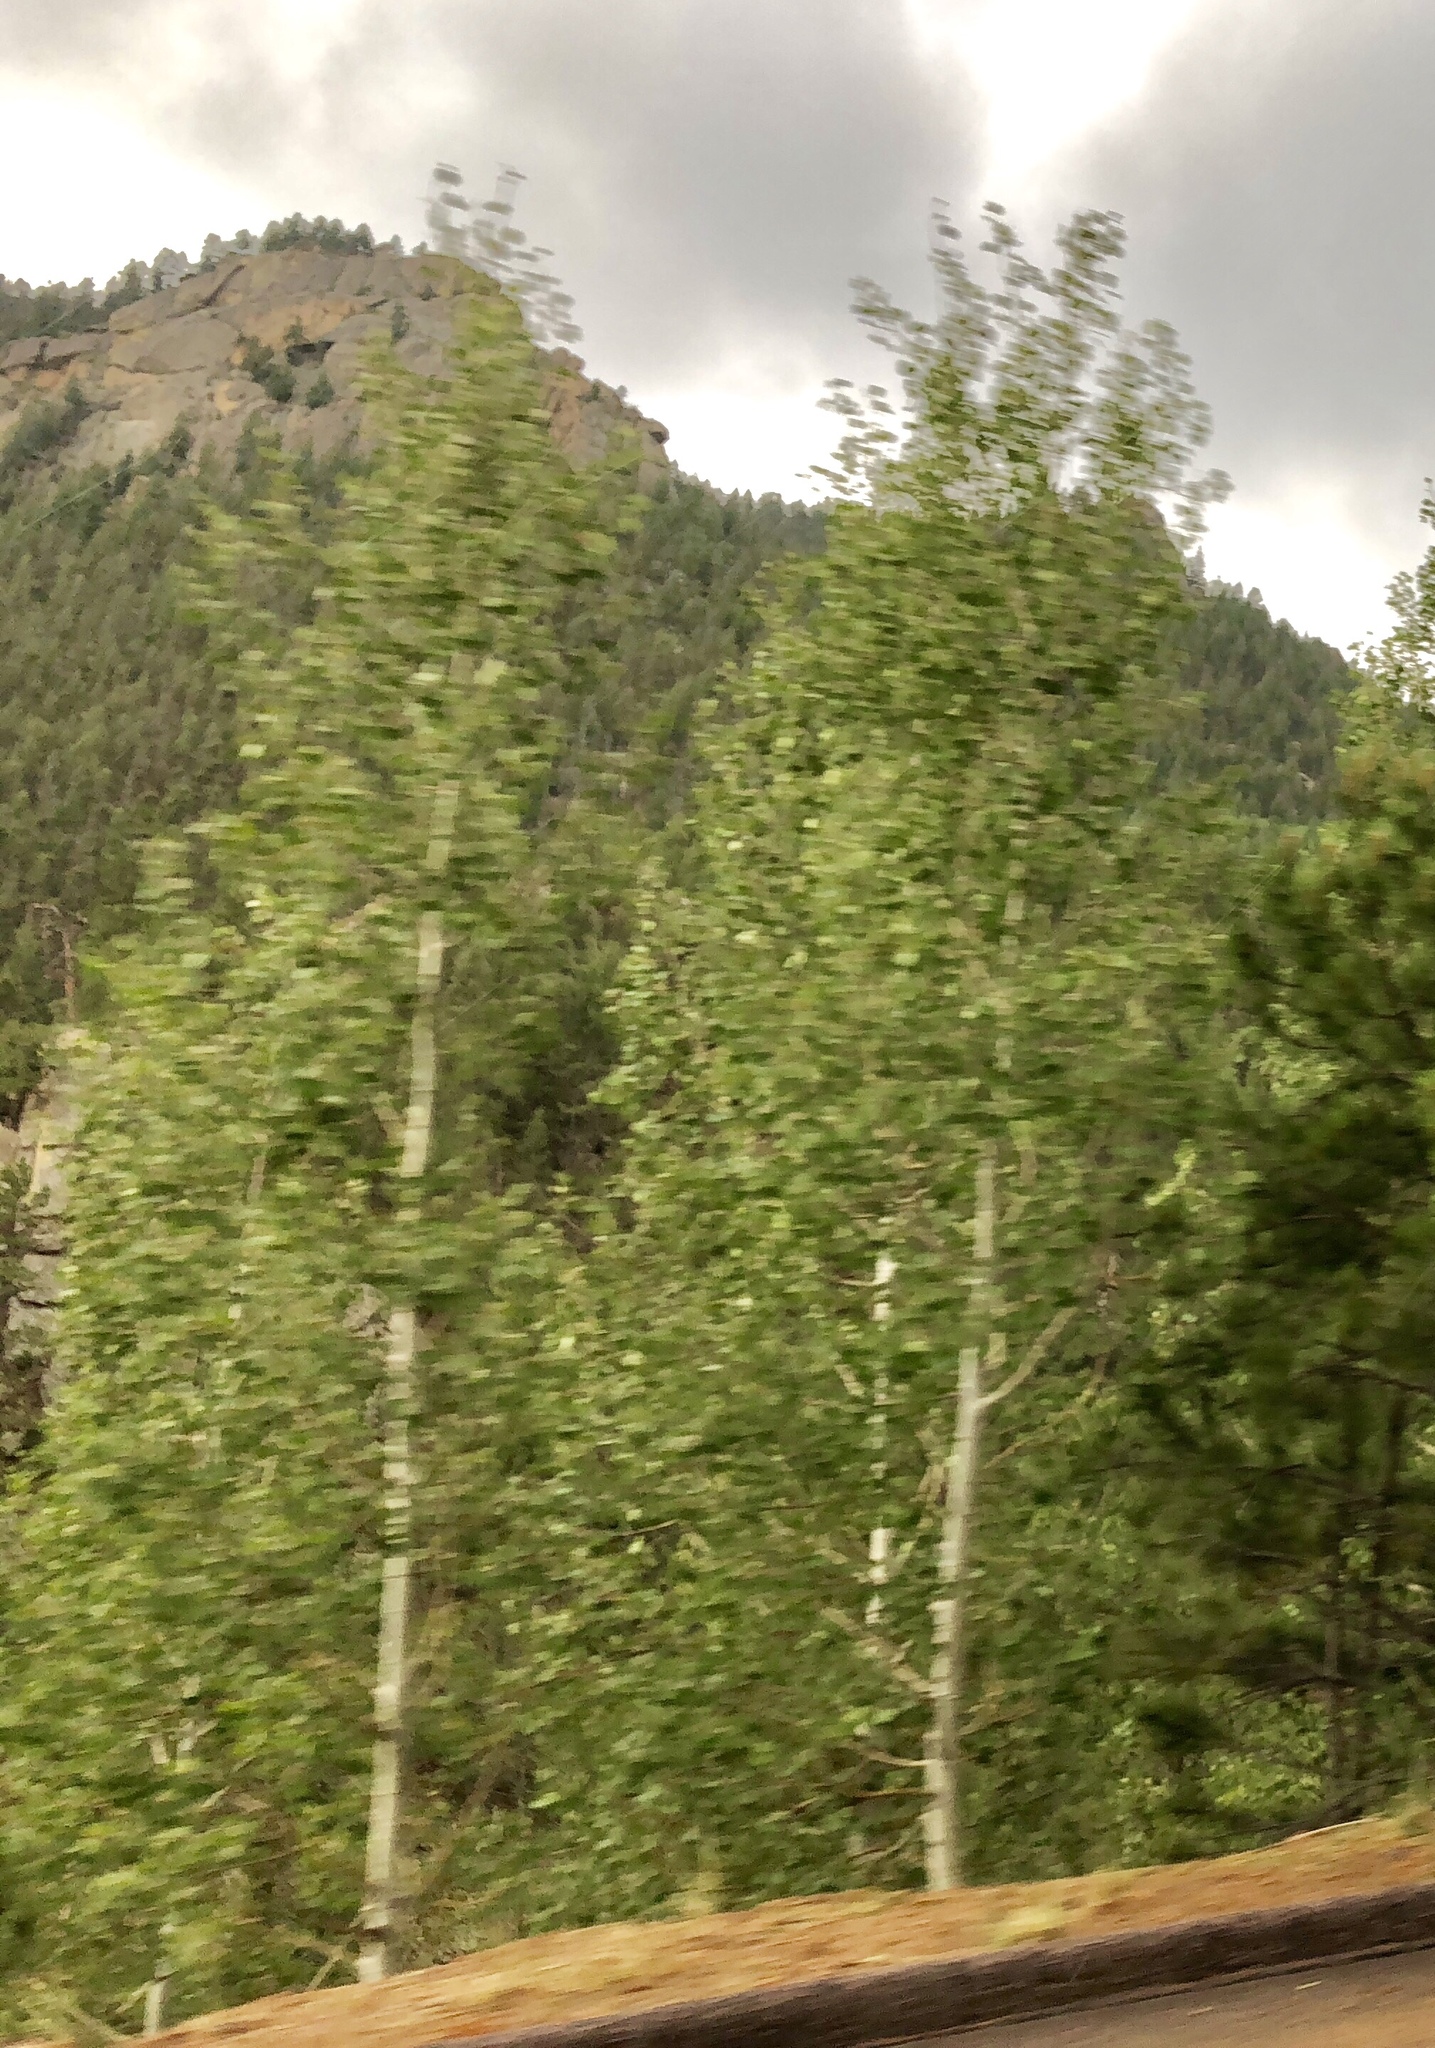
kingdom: Plantae
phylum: Tracheophyta
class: Magnoliopsida
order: Malpighiales
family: Salicaceae
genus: Populus
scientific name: Populus tremuloides
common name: Quaking aspen
